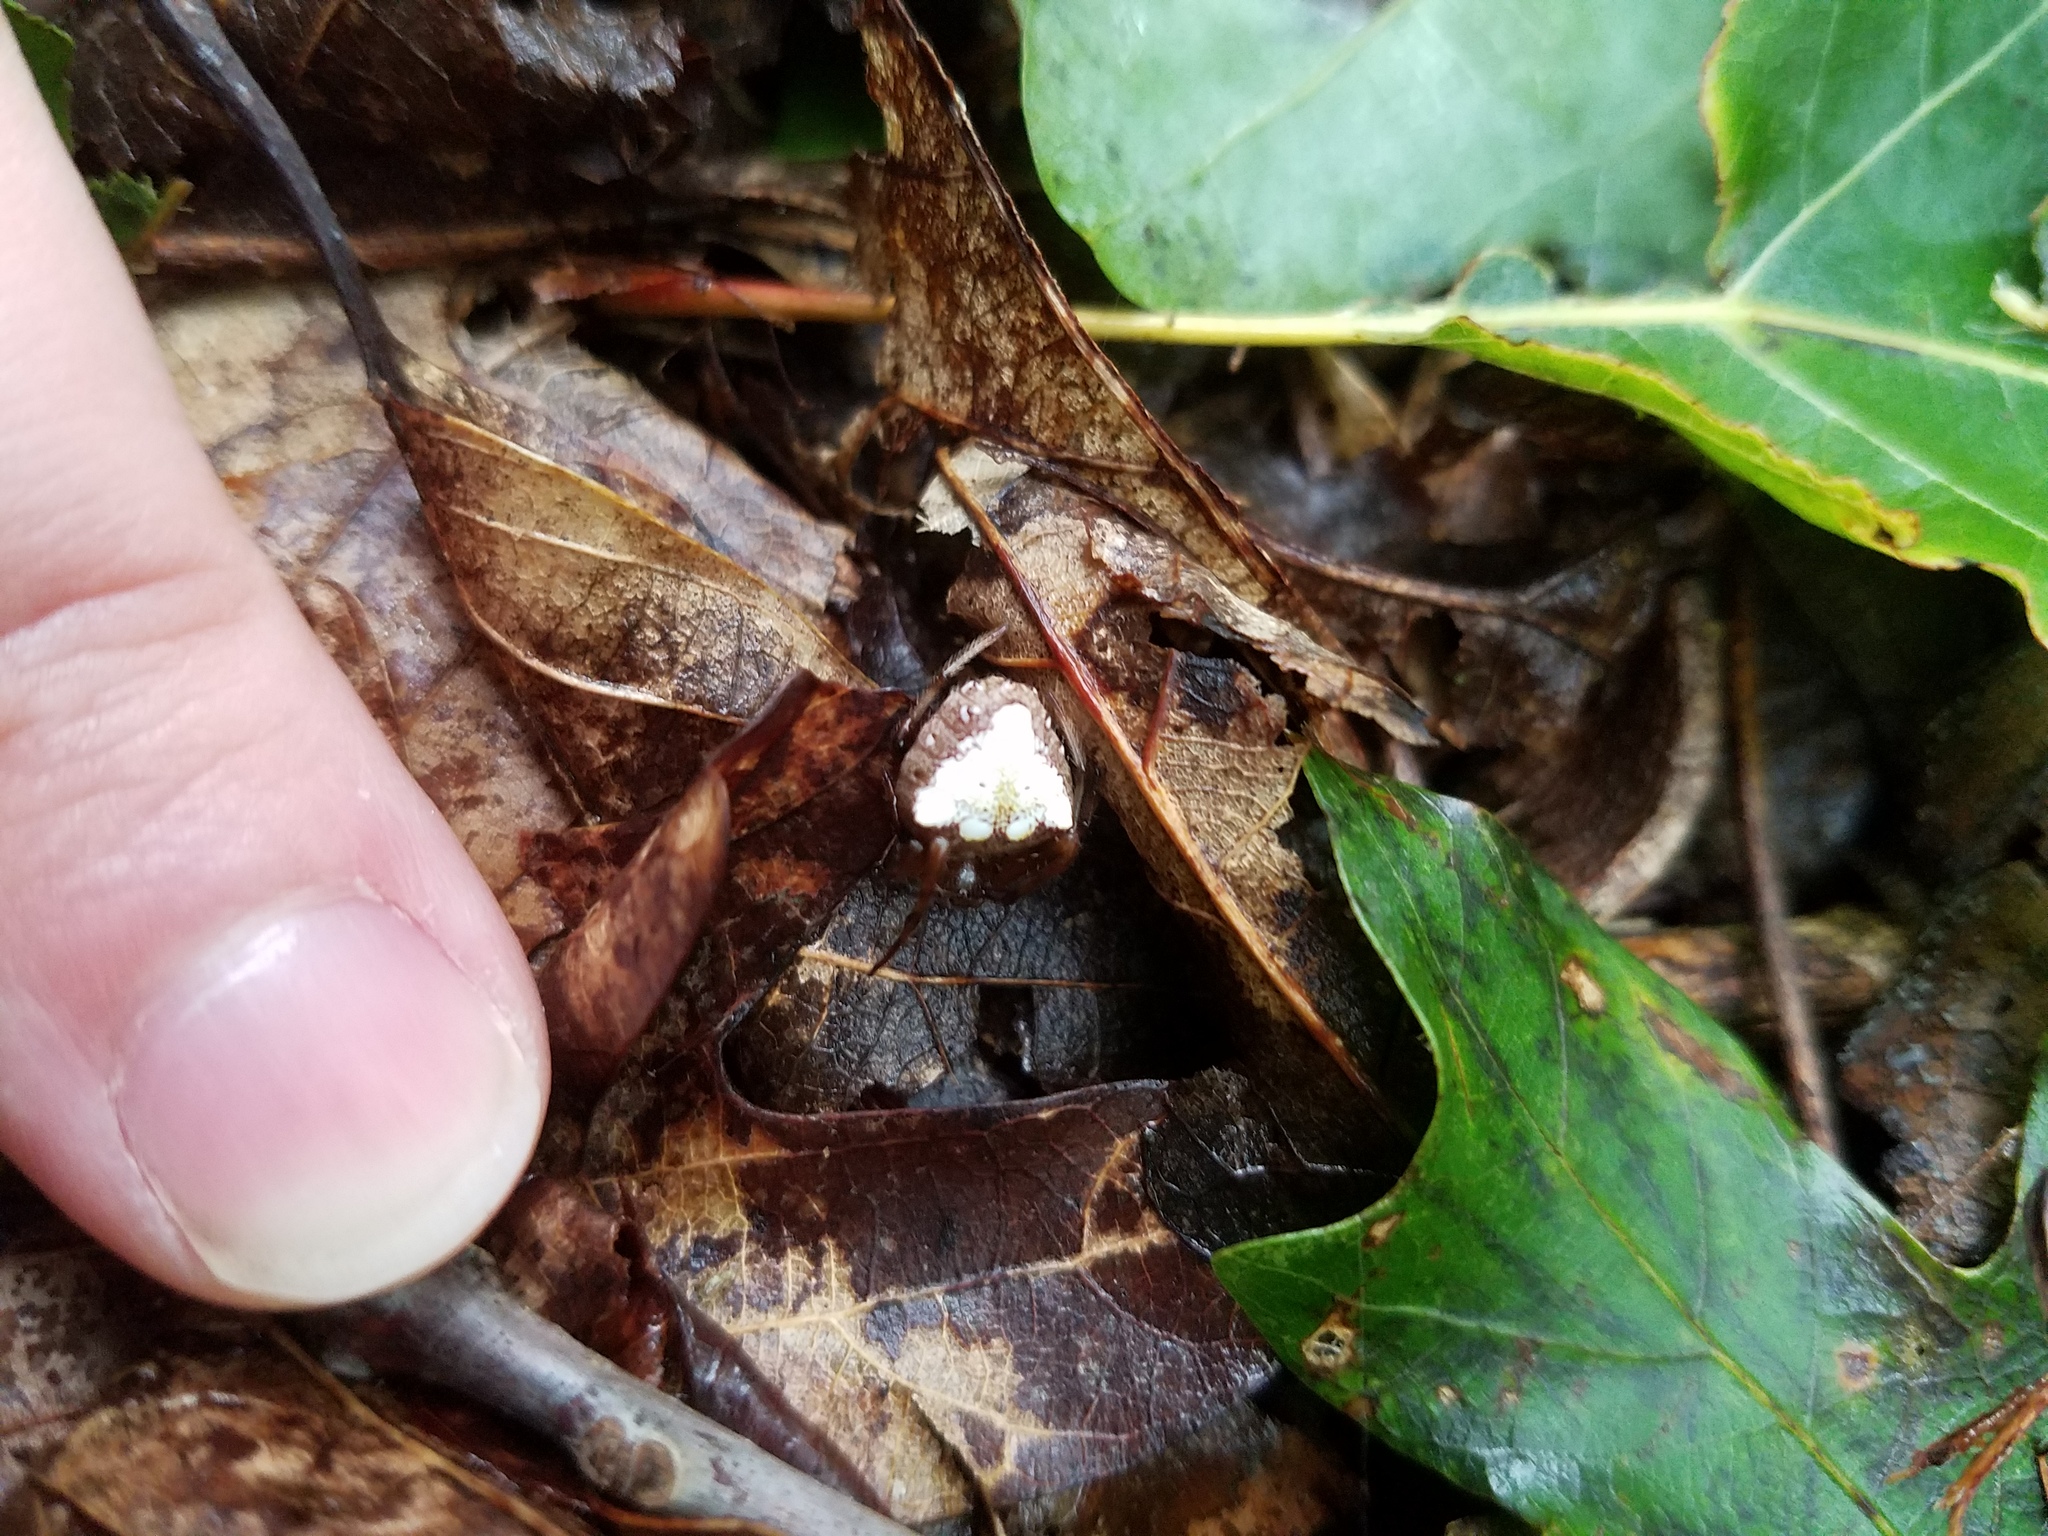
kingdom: Animalia
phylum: Arthropoda
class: Arachnida
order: Araneae
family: Araneidae
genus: Verrucosa
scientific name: Verrucosa arenata
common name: Orb weavers
